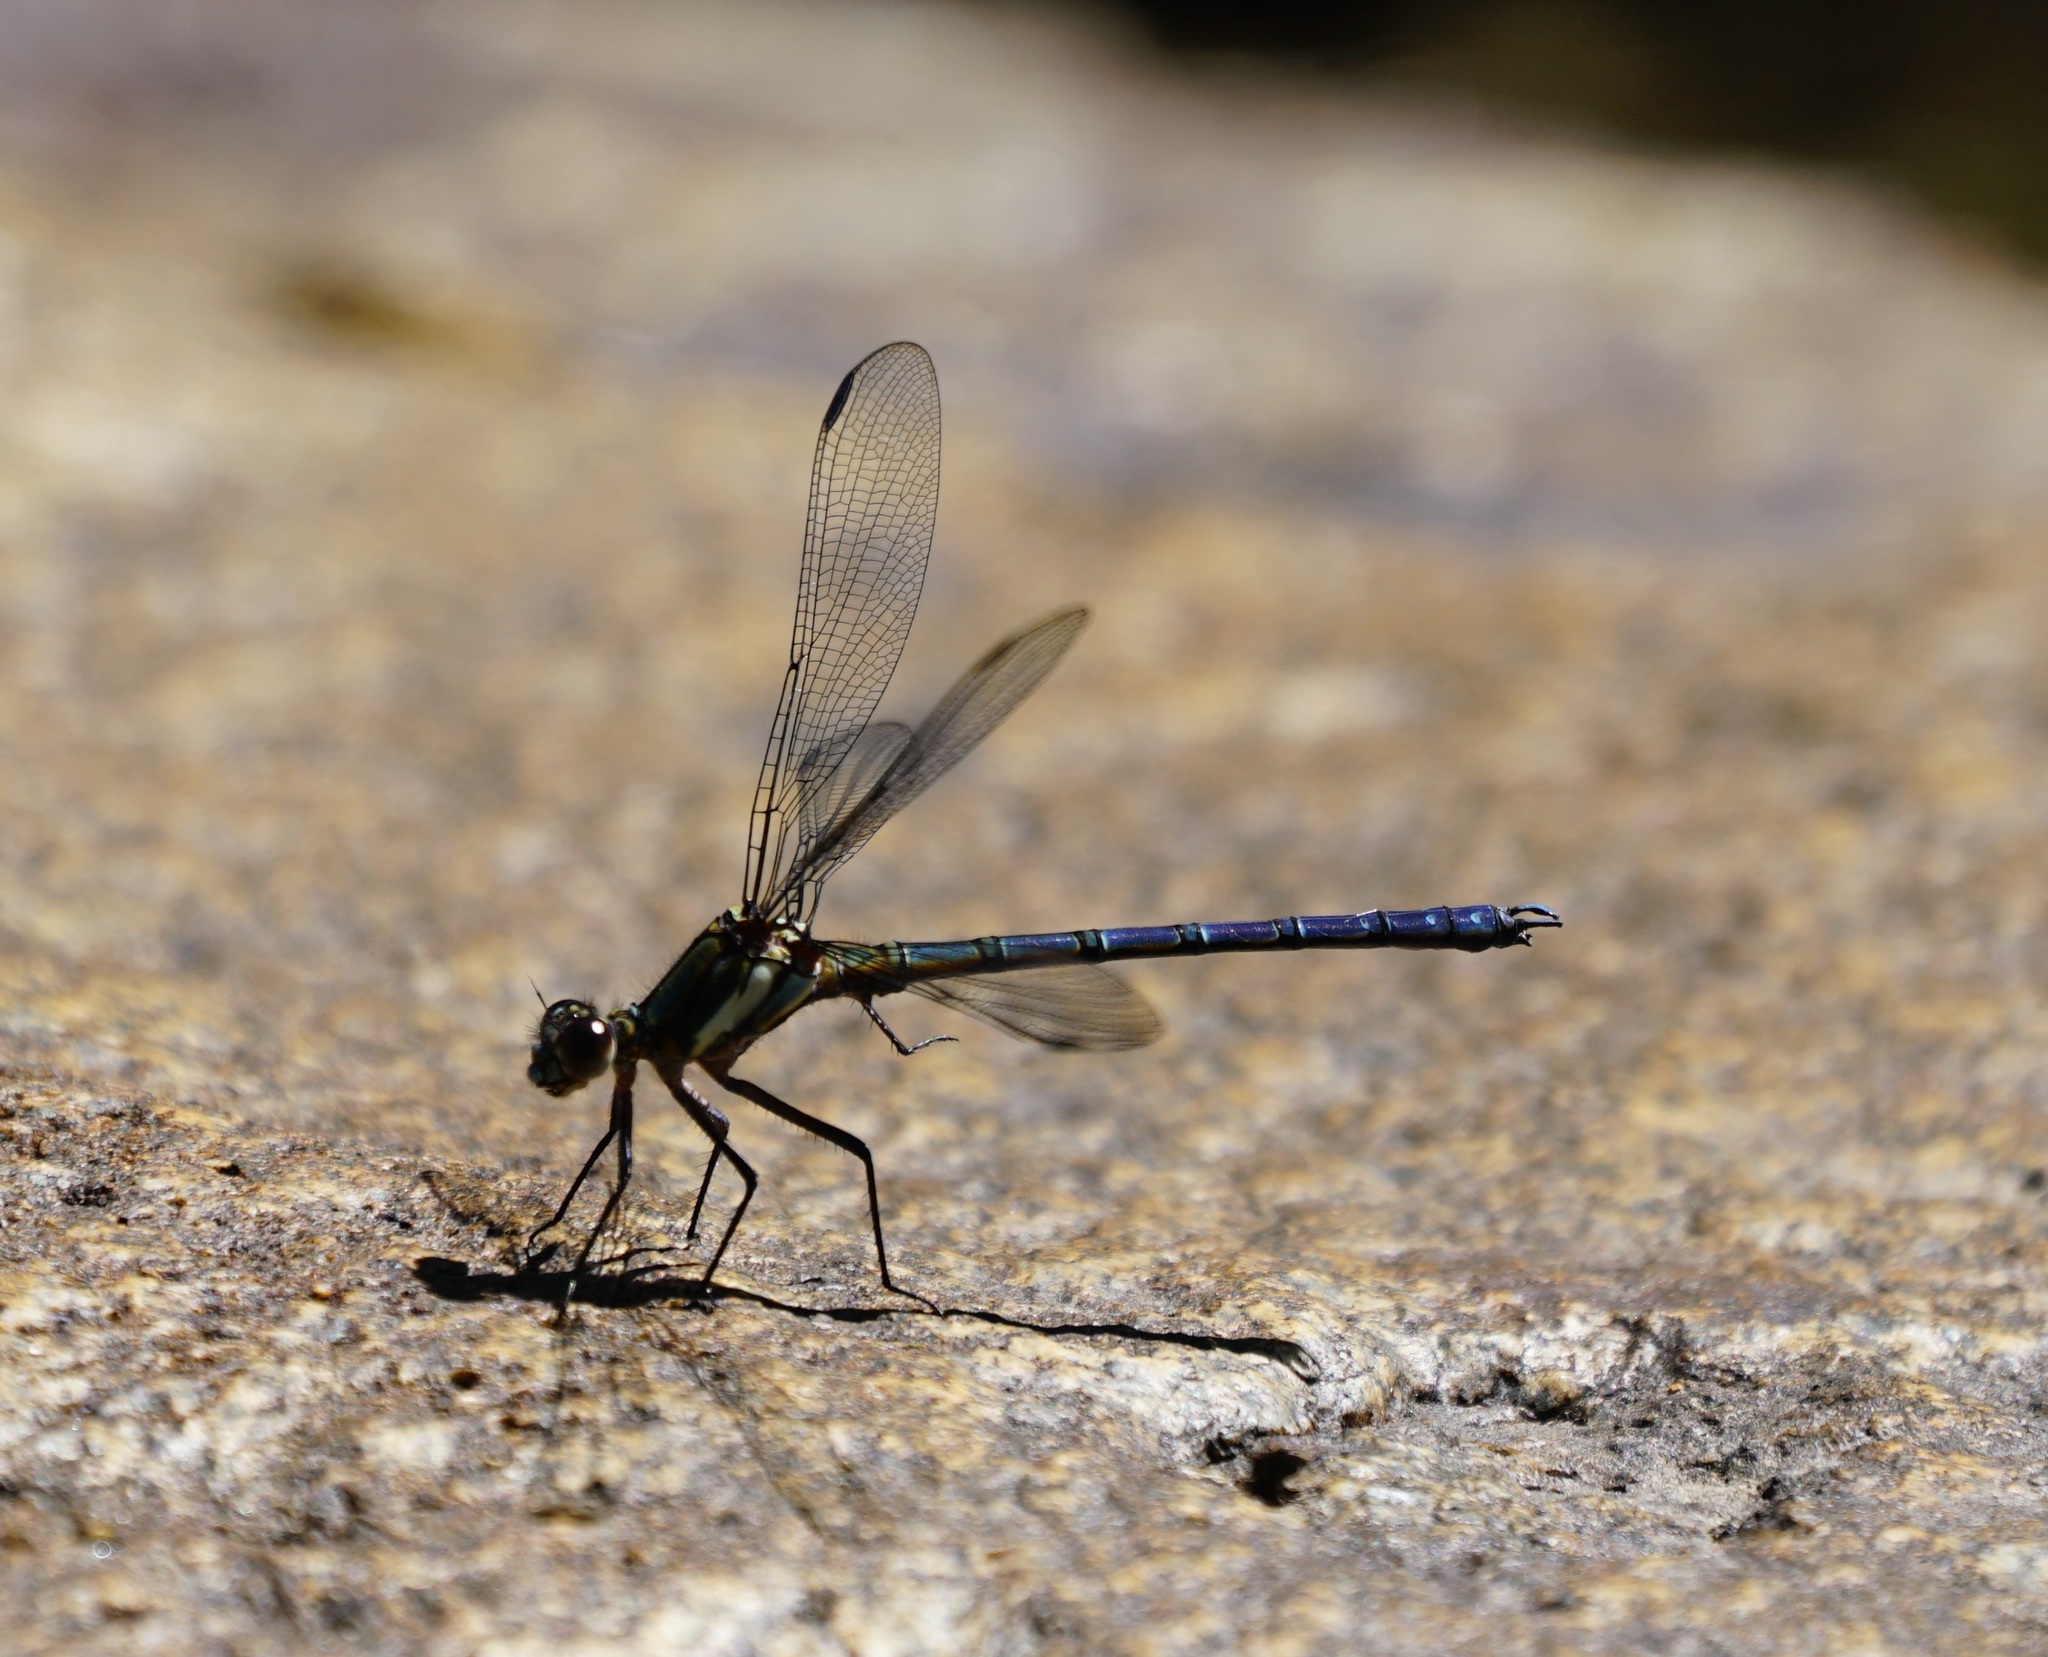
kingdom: Animalia
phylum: Arthropoda
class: Insecta
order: Odonata
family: Lestoideidae
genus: Diphlebia
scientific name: Diphlebia lestoides
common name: Whitewater rockmaster
